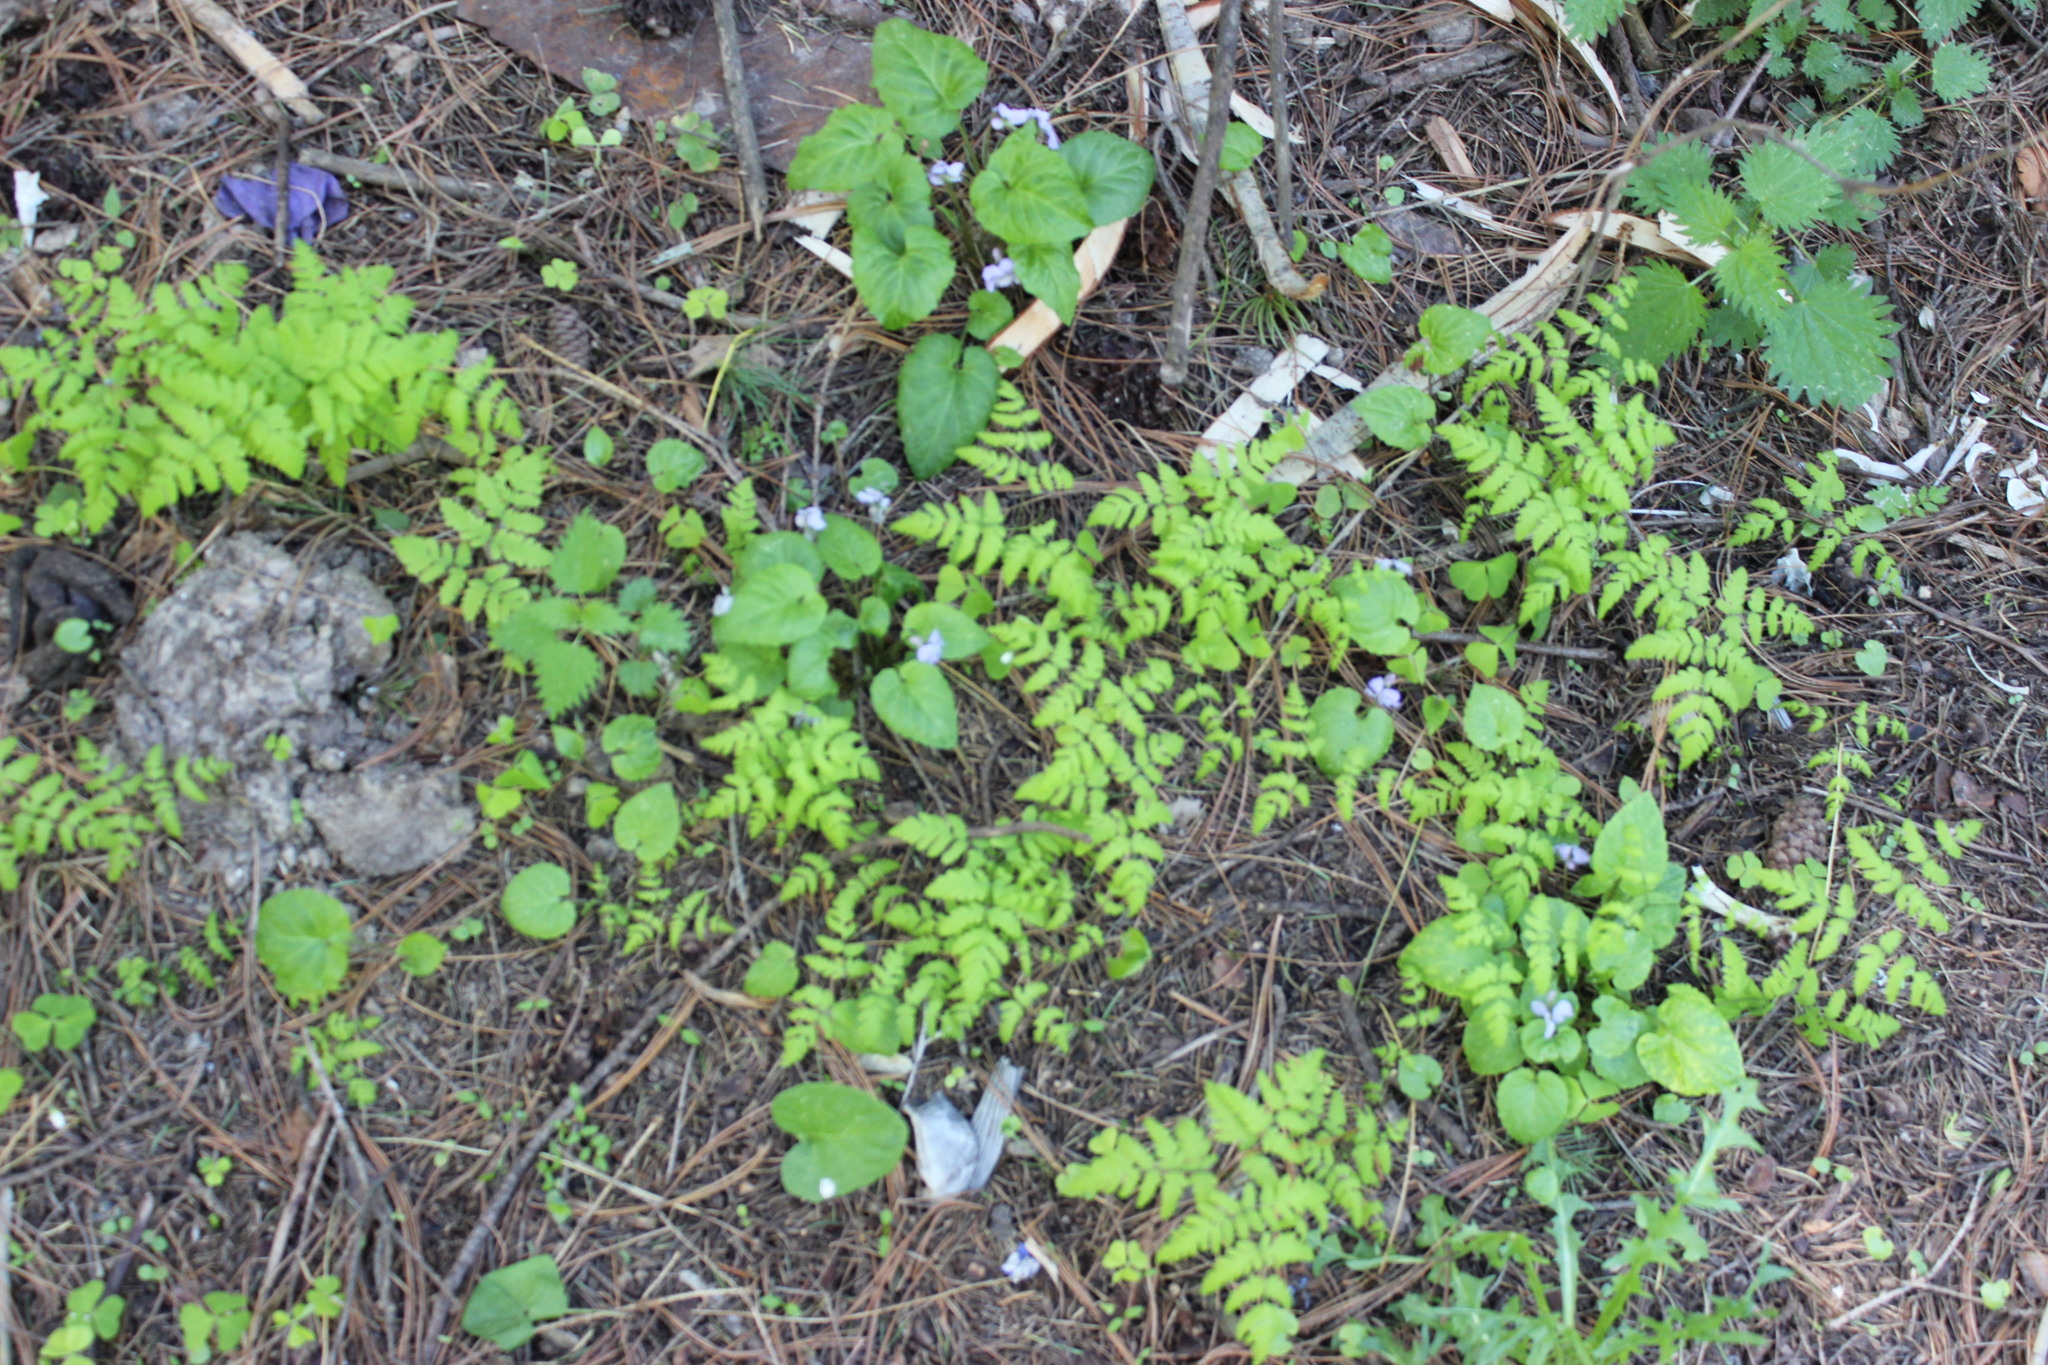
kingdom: Plantae
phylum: Tracheophyta
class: Polypodiopsida
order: Polypodiales
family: Cystopteridaceae
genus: Gymnocarpium
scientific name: Gymnocarpium dryopteris
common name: Oak fern
